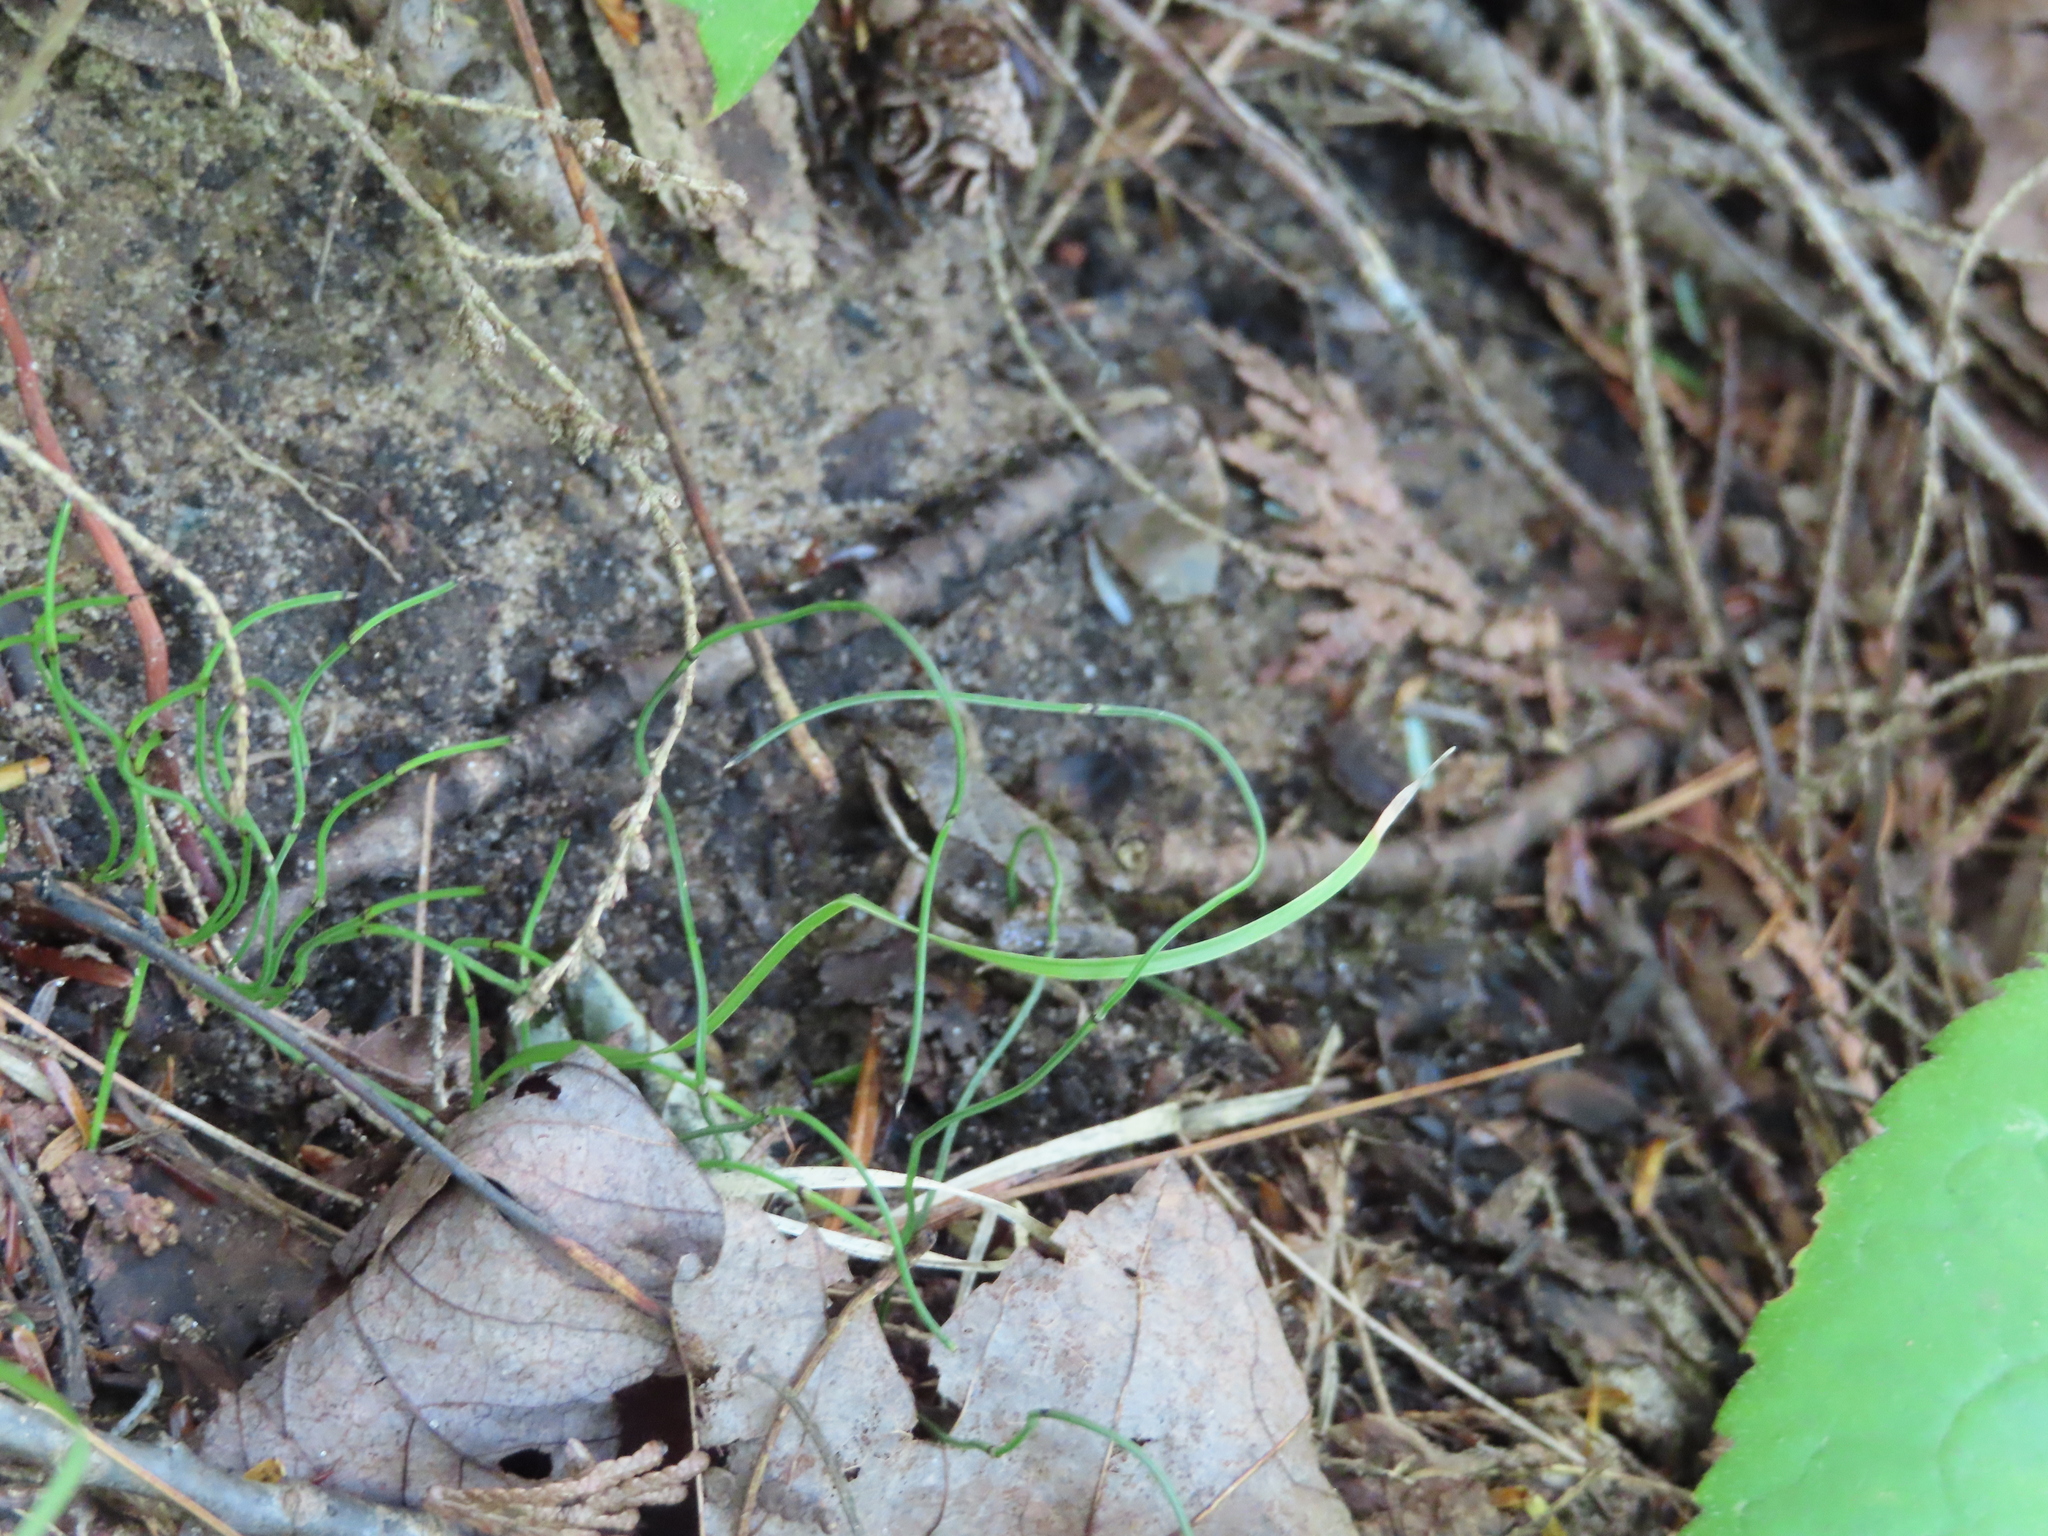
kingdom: Animalia
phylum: Chordata
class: Amphibia
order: Anura
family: Ranidae
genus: Lithobates
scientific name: Lithobates sylvaticus
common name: Wood frog
